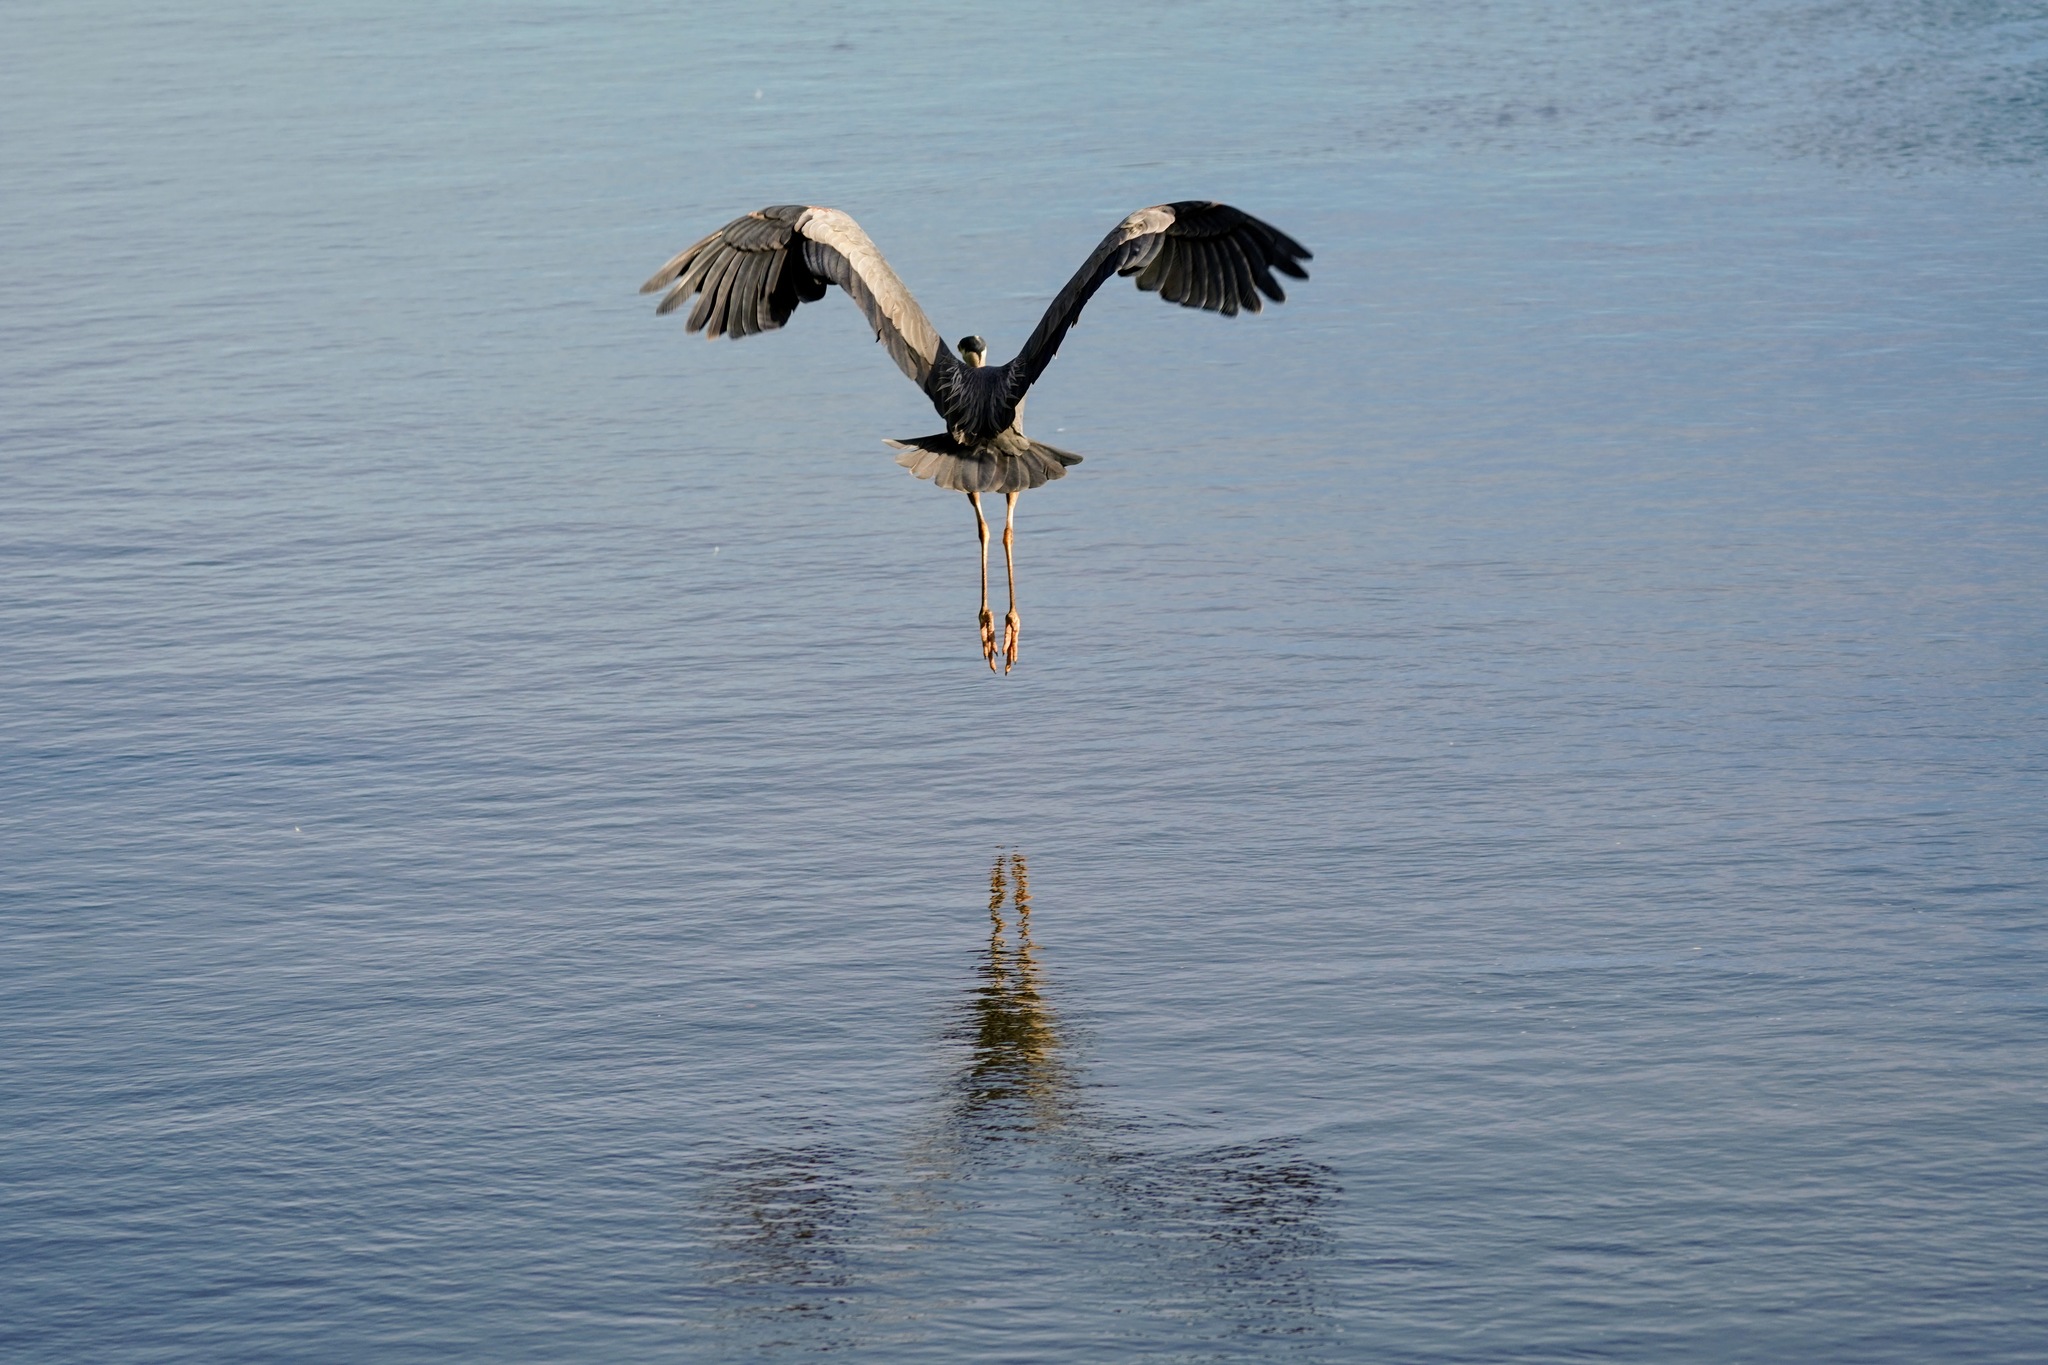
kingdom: Animalia
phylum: Chordata
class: Aves
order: Pelecaniformes
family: Ardeidae
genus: Ardea
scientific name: Ardea herodias
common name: Great blue heron
